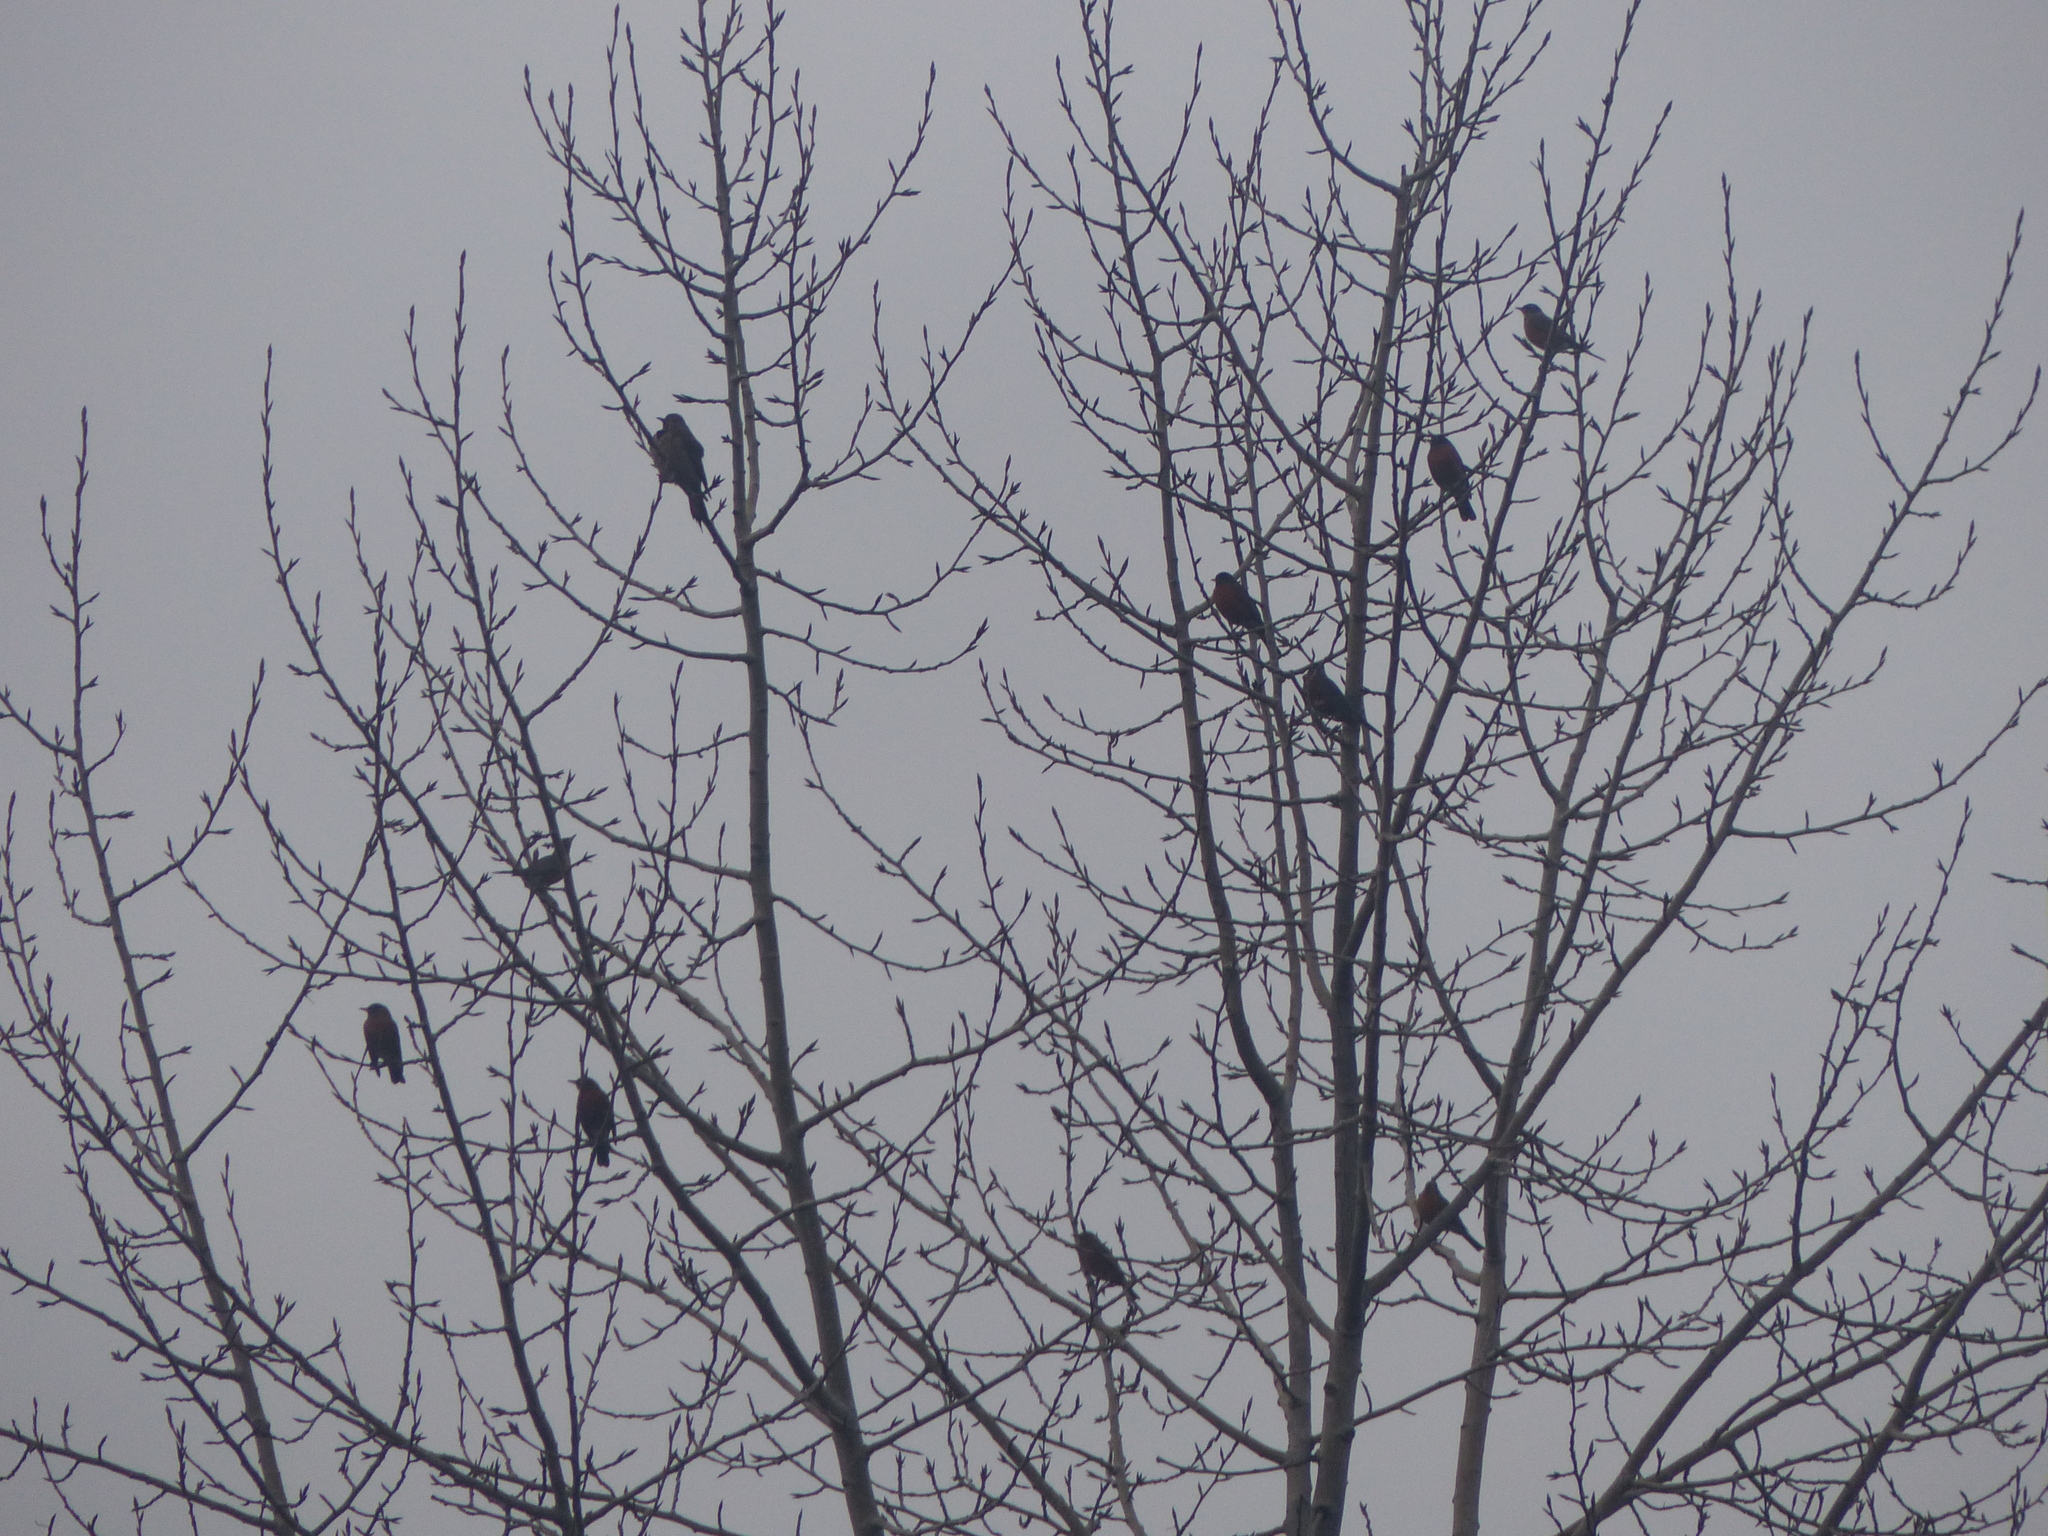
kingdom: Animalia
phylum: Chordata
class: Aves
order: Passeriformes
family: Turdidae
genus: Turdus
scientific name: Turdus migratorius
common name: American robin
